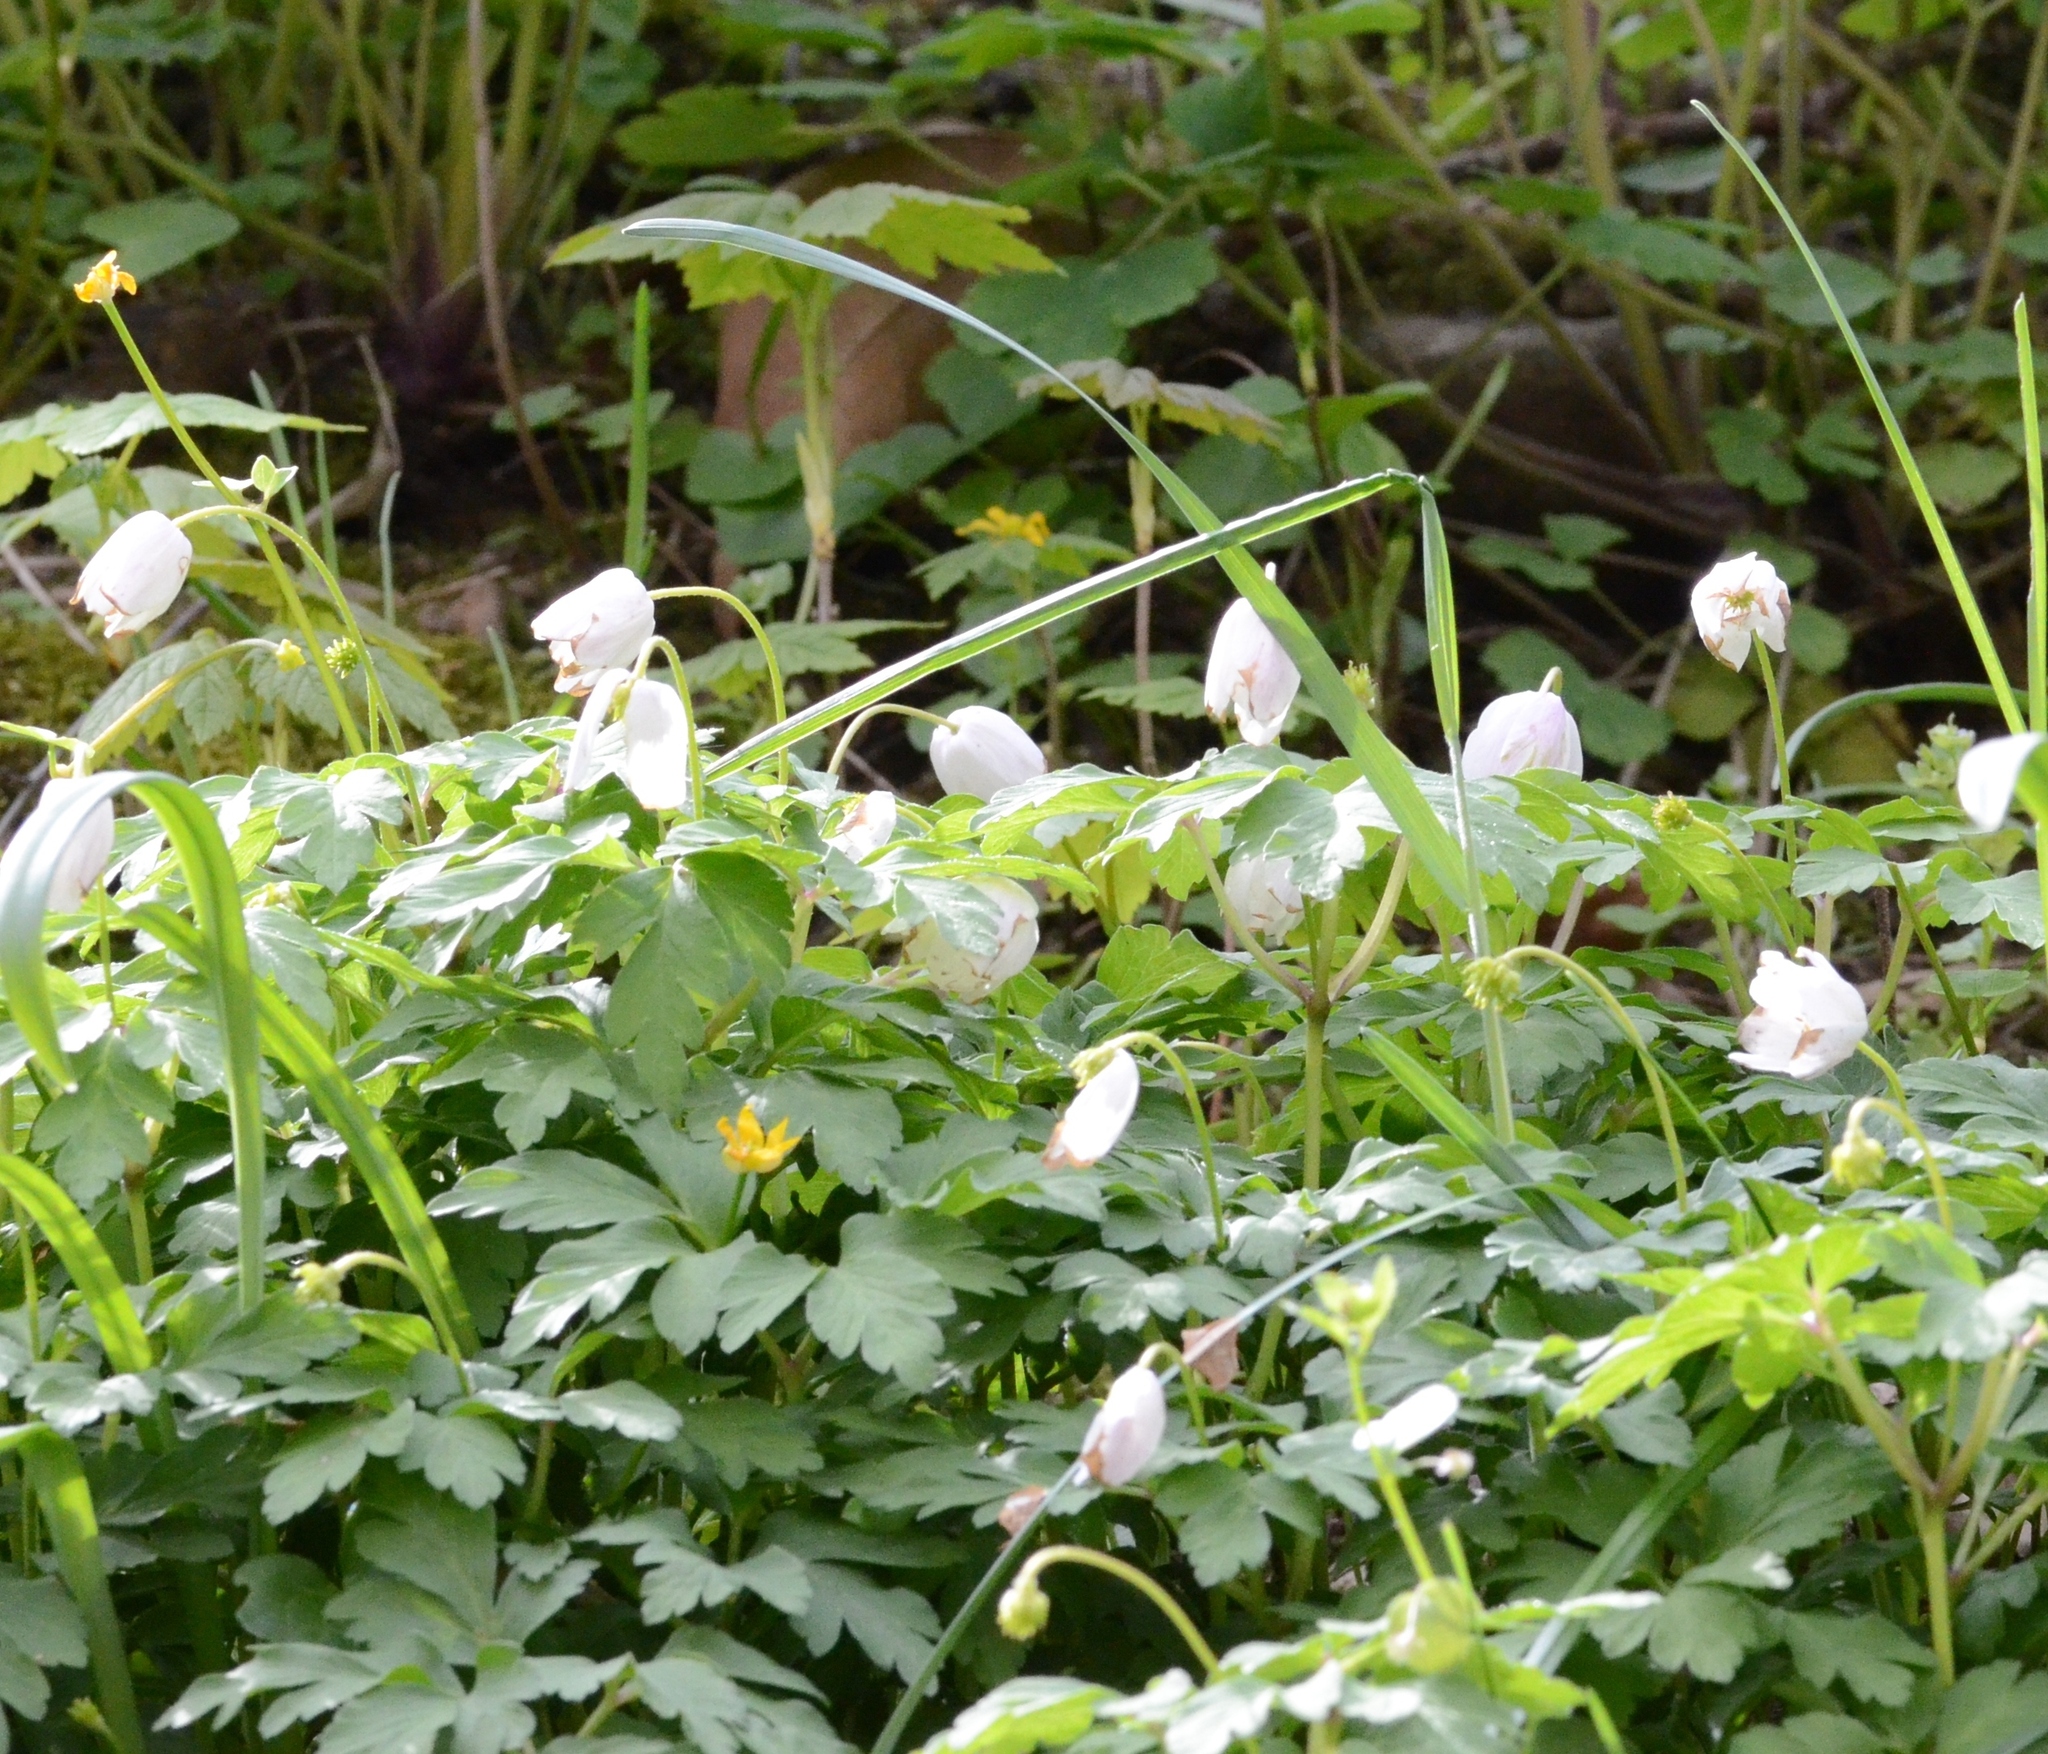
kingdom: Plantae
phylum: Tracheophyta
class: Magnoliopsida
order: Ranunculales
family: Ranunculaceae
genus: Anemone
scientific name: Anemone nemorosa
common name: Wood anemone
